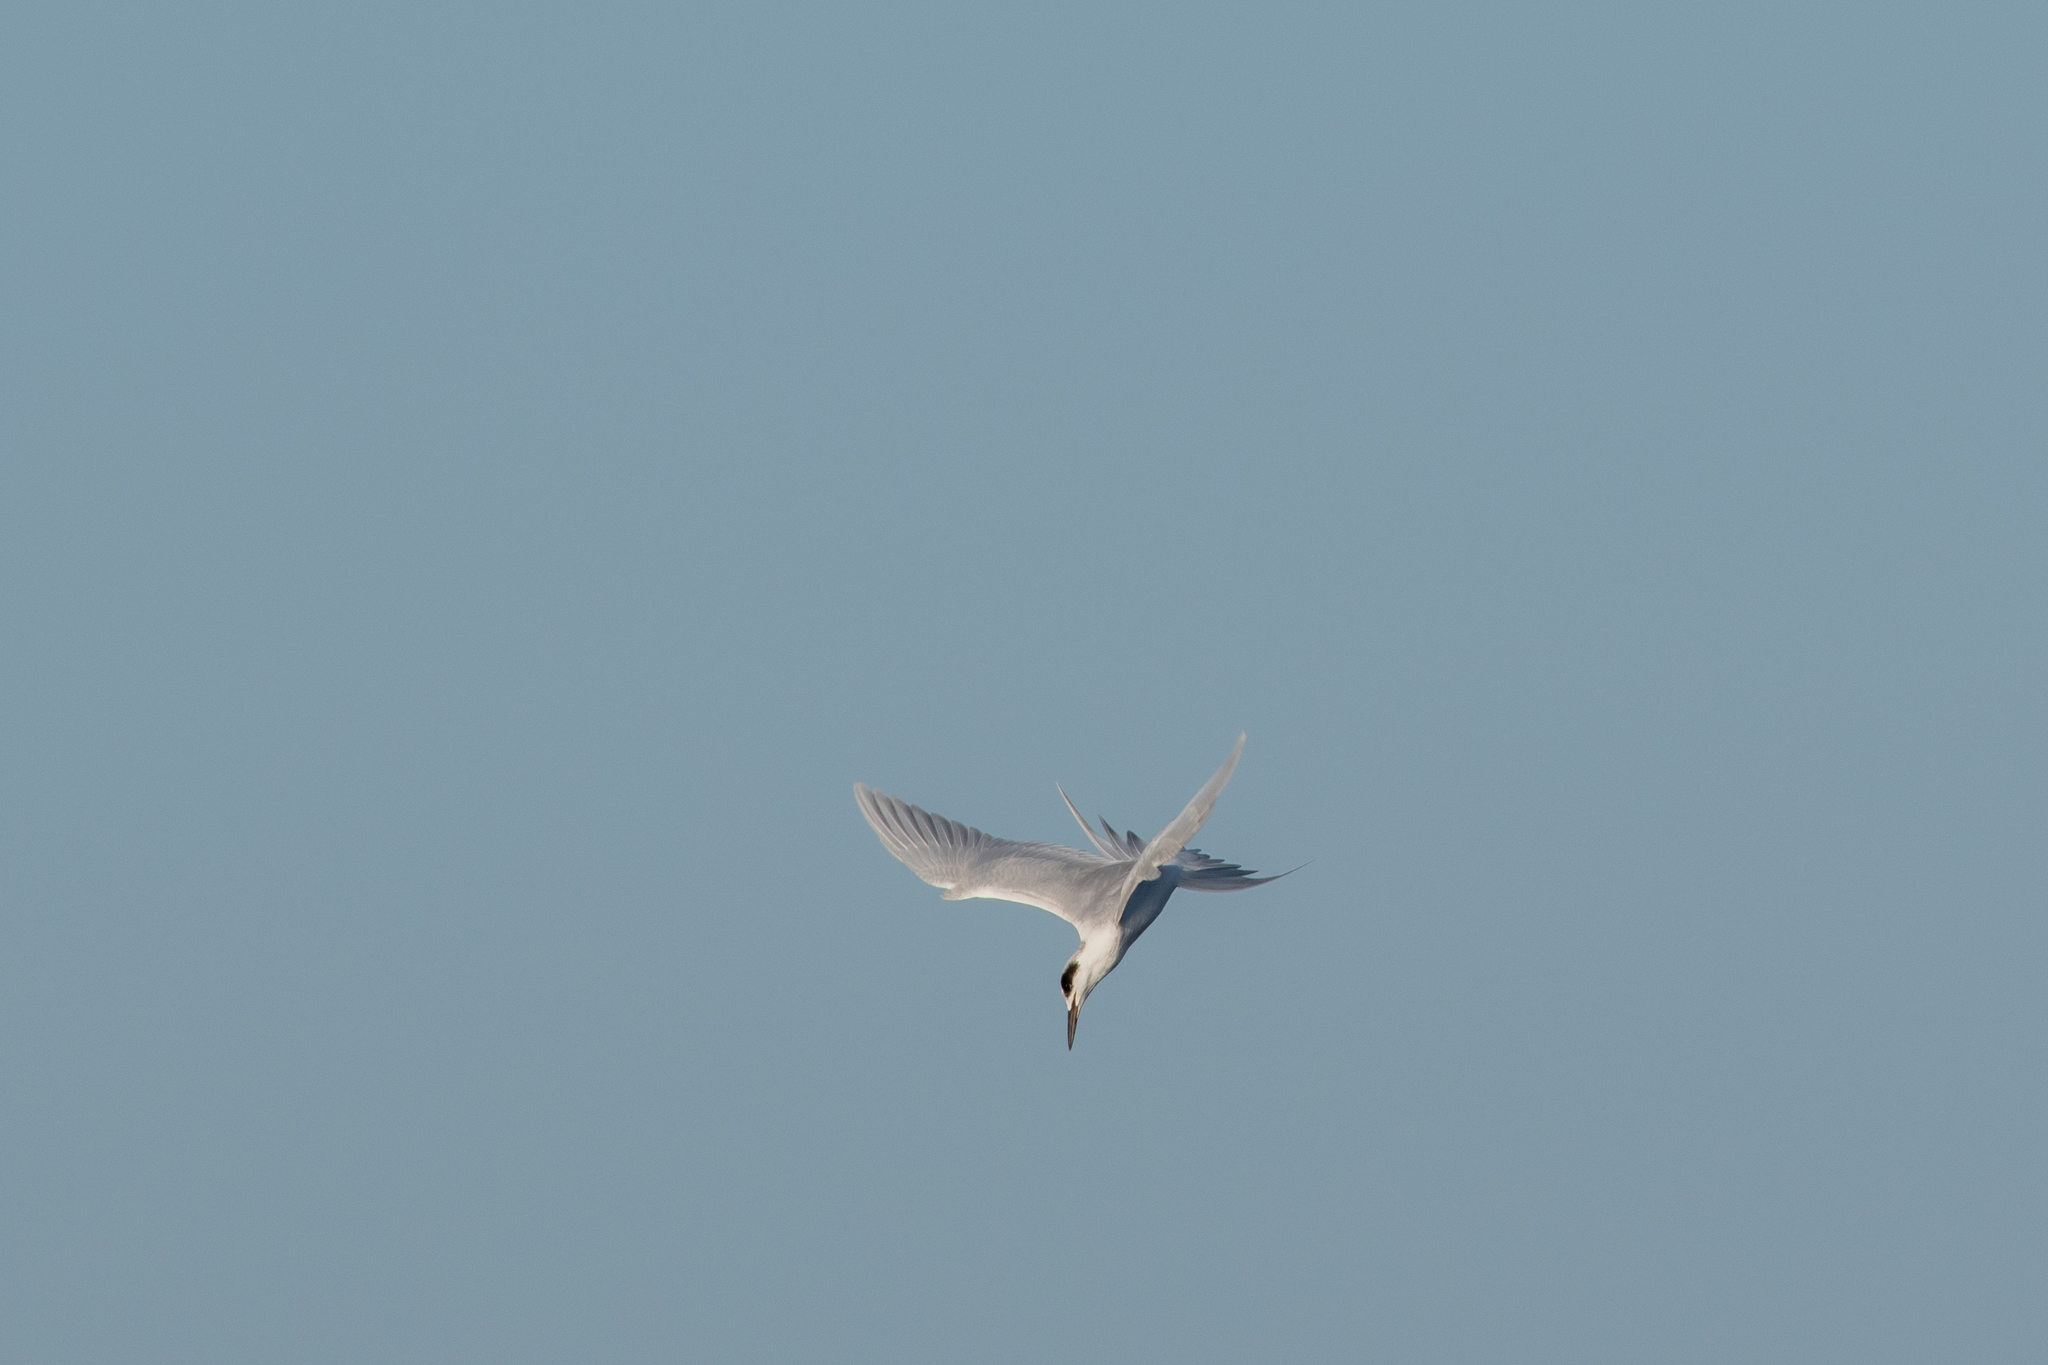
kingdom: Animalia
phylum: Chordata
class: Aves
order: Charadriiformes
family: Laridae
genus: Sterna
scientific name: Sterna forsteri
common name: Forster's tern
